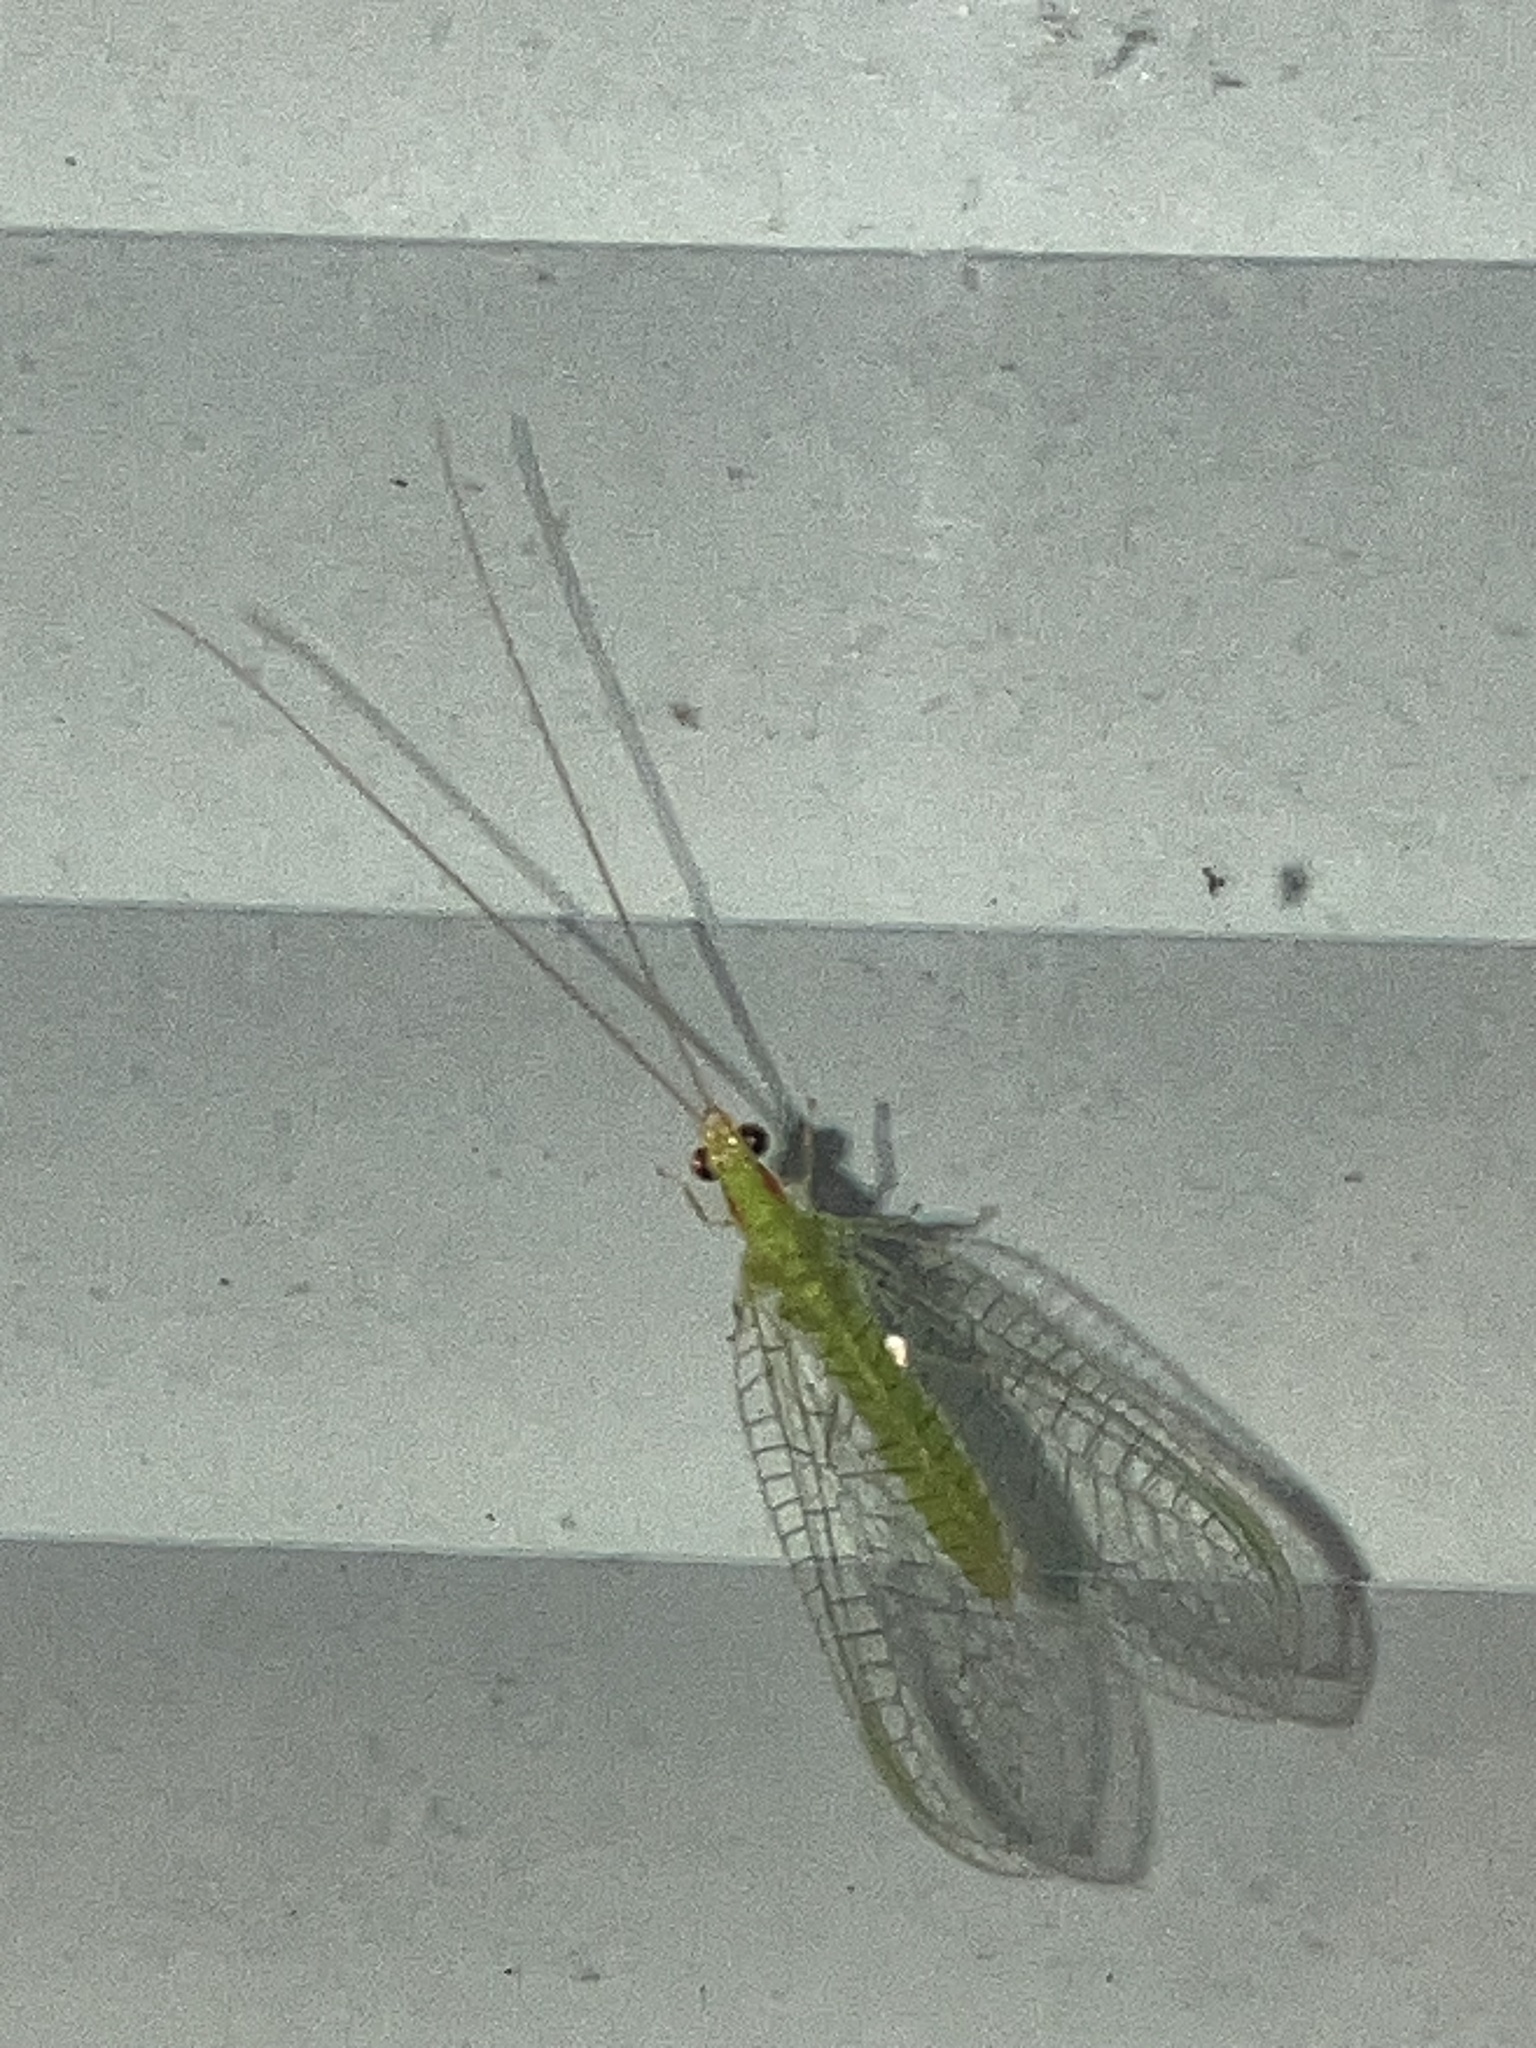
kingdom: Animalia
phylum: Arthropoda
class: Insecta
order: Neuroptera
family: Chrysopidae
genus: Ceraeochrysa
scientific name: Ceraeochrysa
